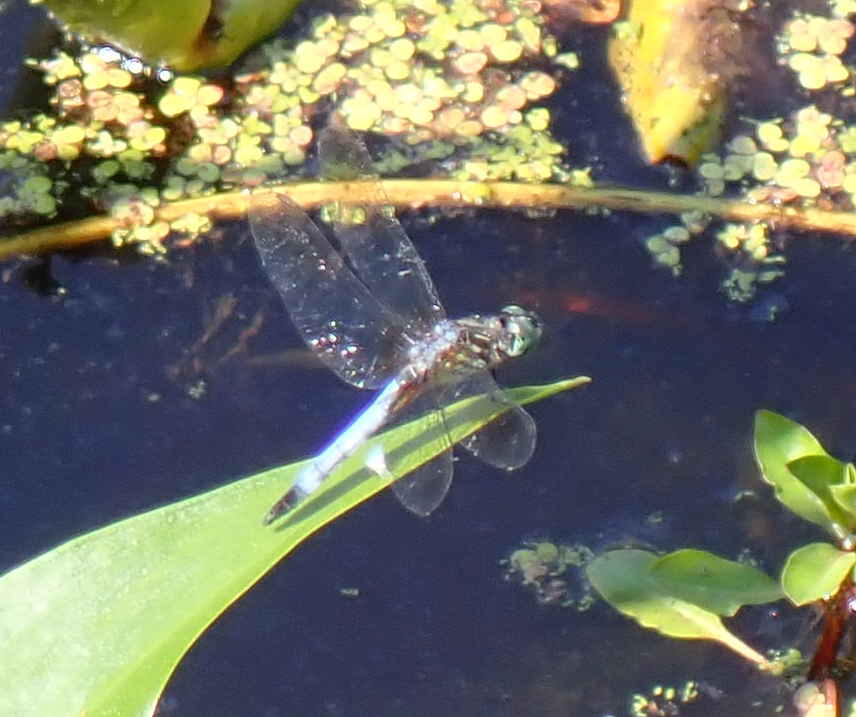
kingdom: Animalia
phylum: Arthropoda
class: Insecta
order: Odonata
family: Libellulidae
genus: Pachydiplax
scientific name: Pachydiplax longipennis
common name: Blue dasher
